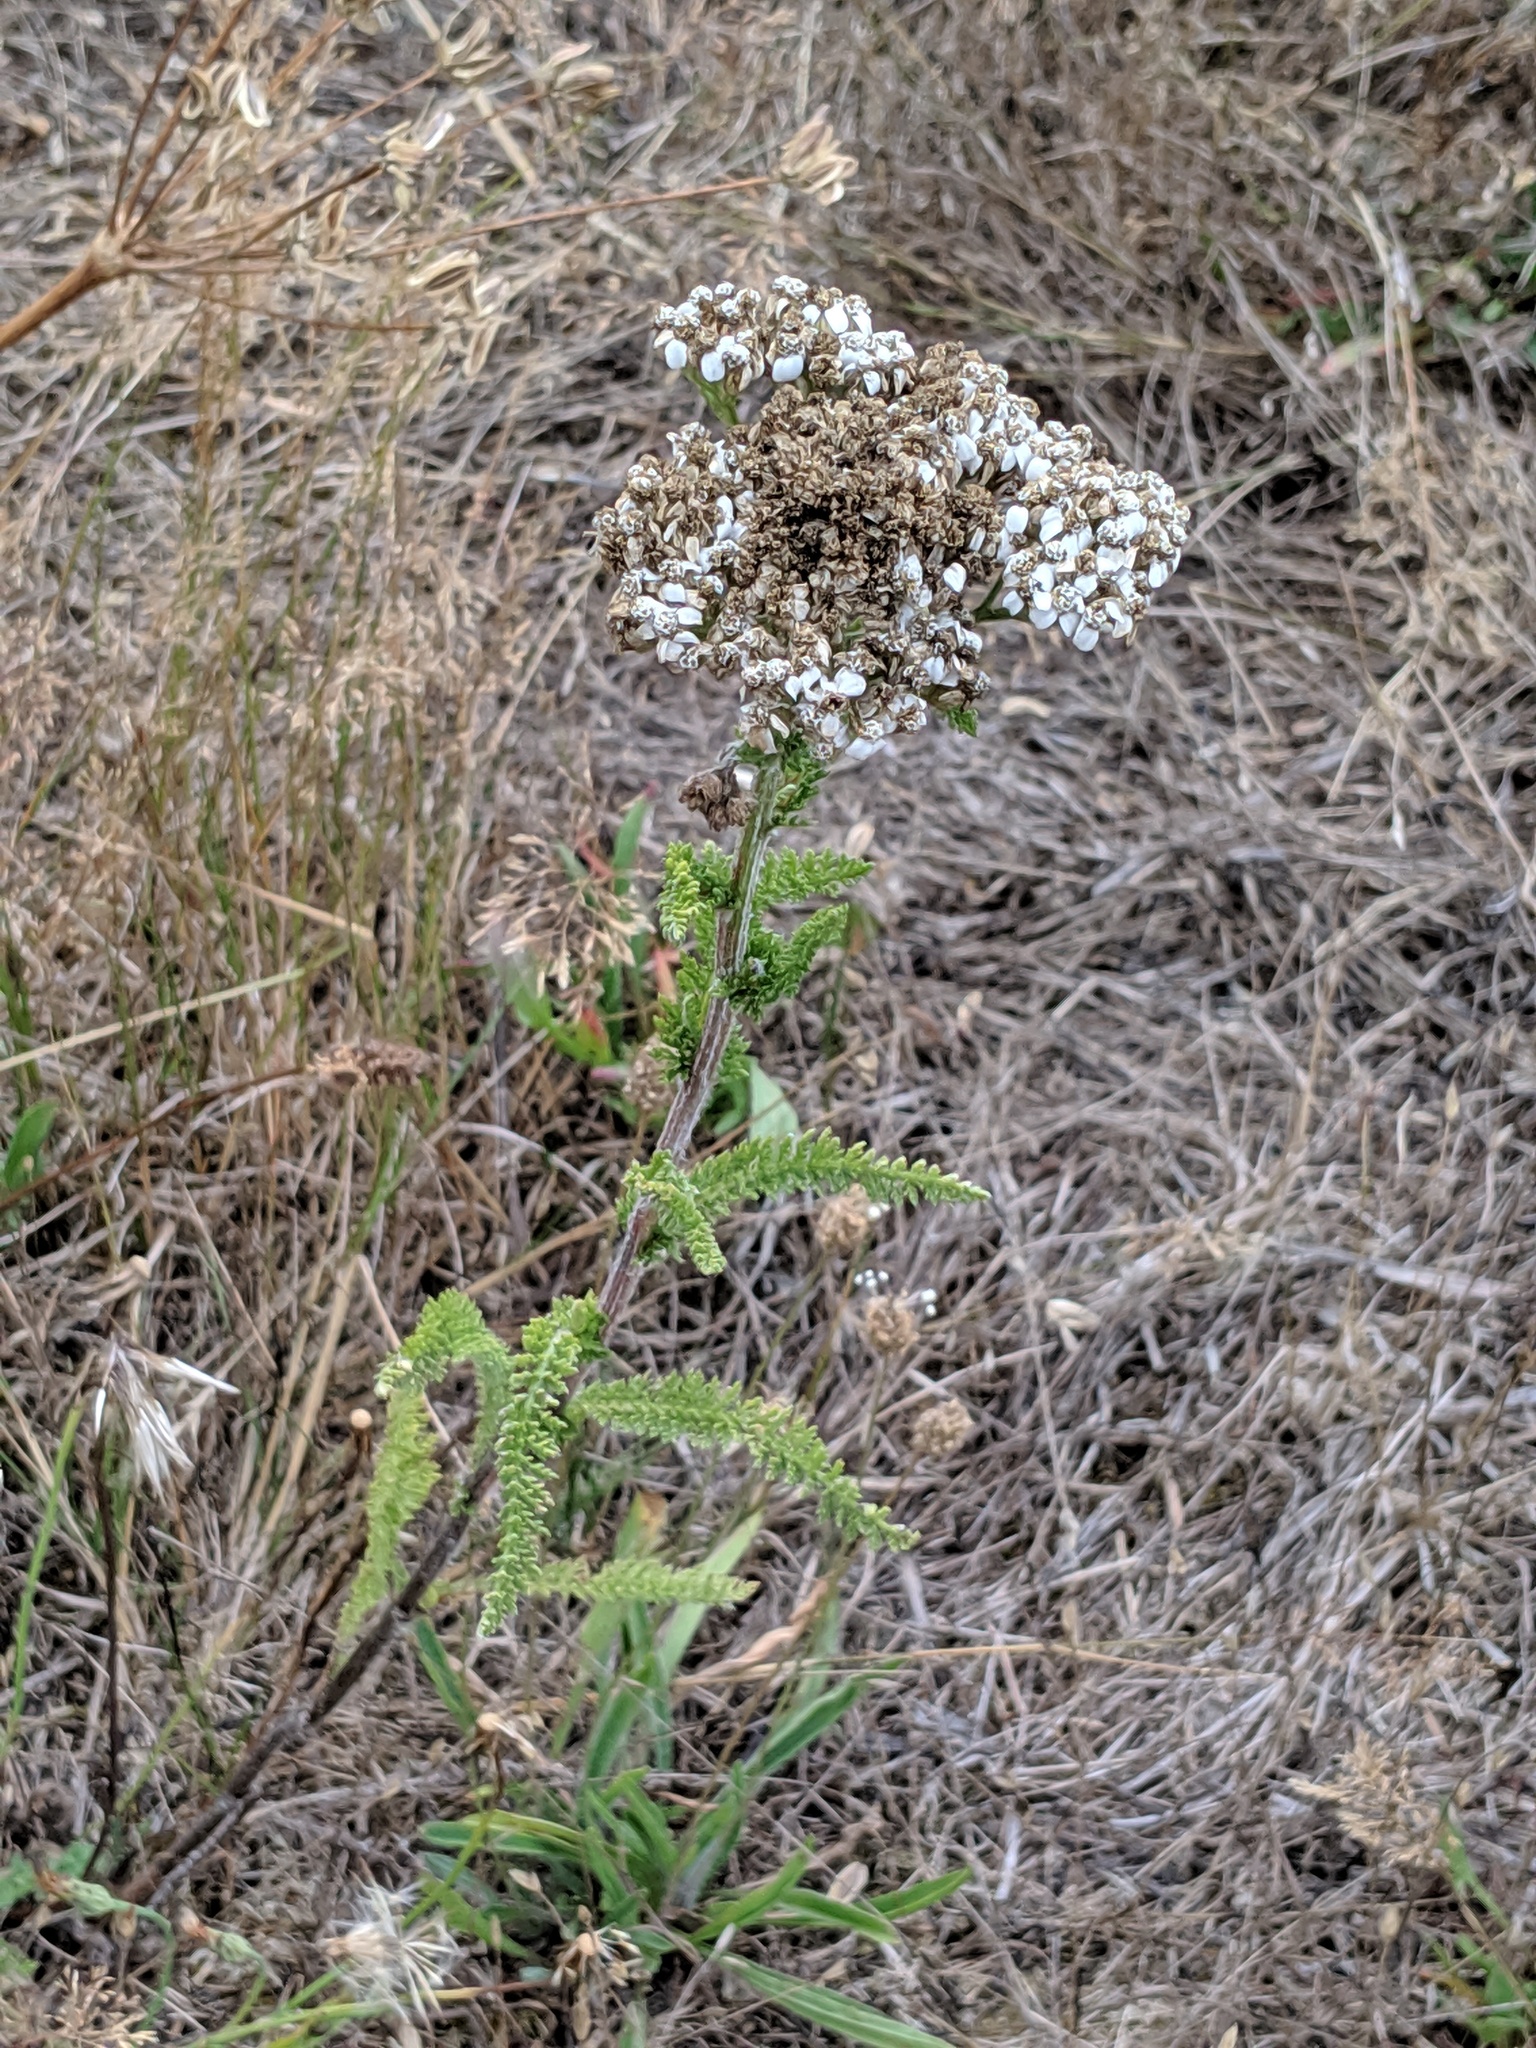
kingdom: Plantae
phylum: Tracheophyta
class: Magnoliopsida
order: Asterales
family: Asteraceae
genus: Achillea
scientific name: Achillea millefolium
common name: Yarrow
